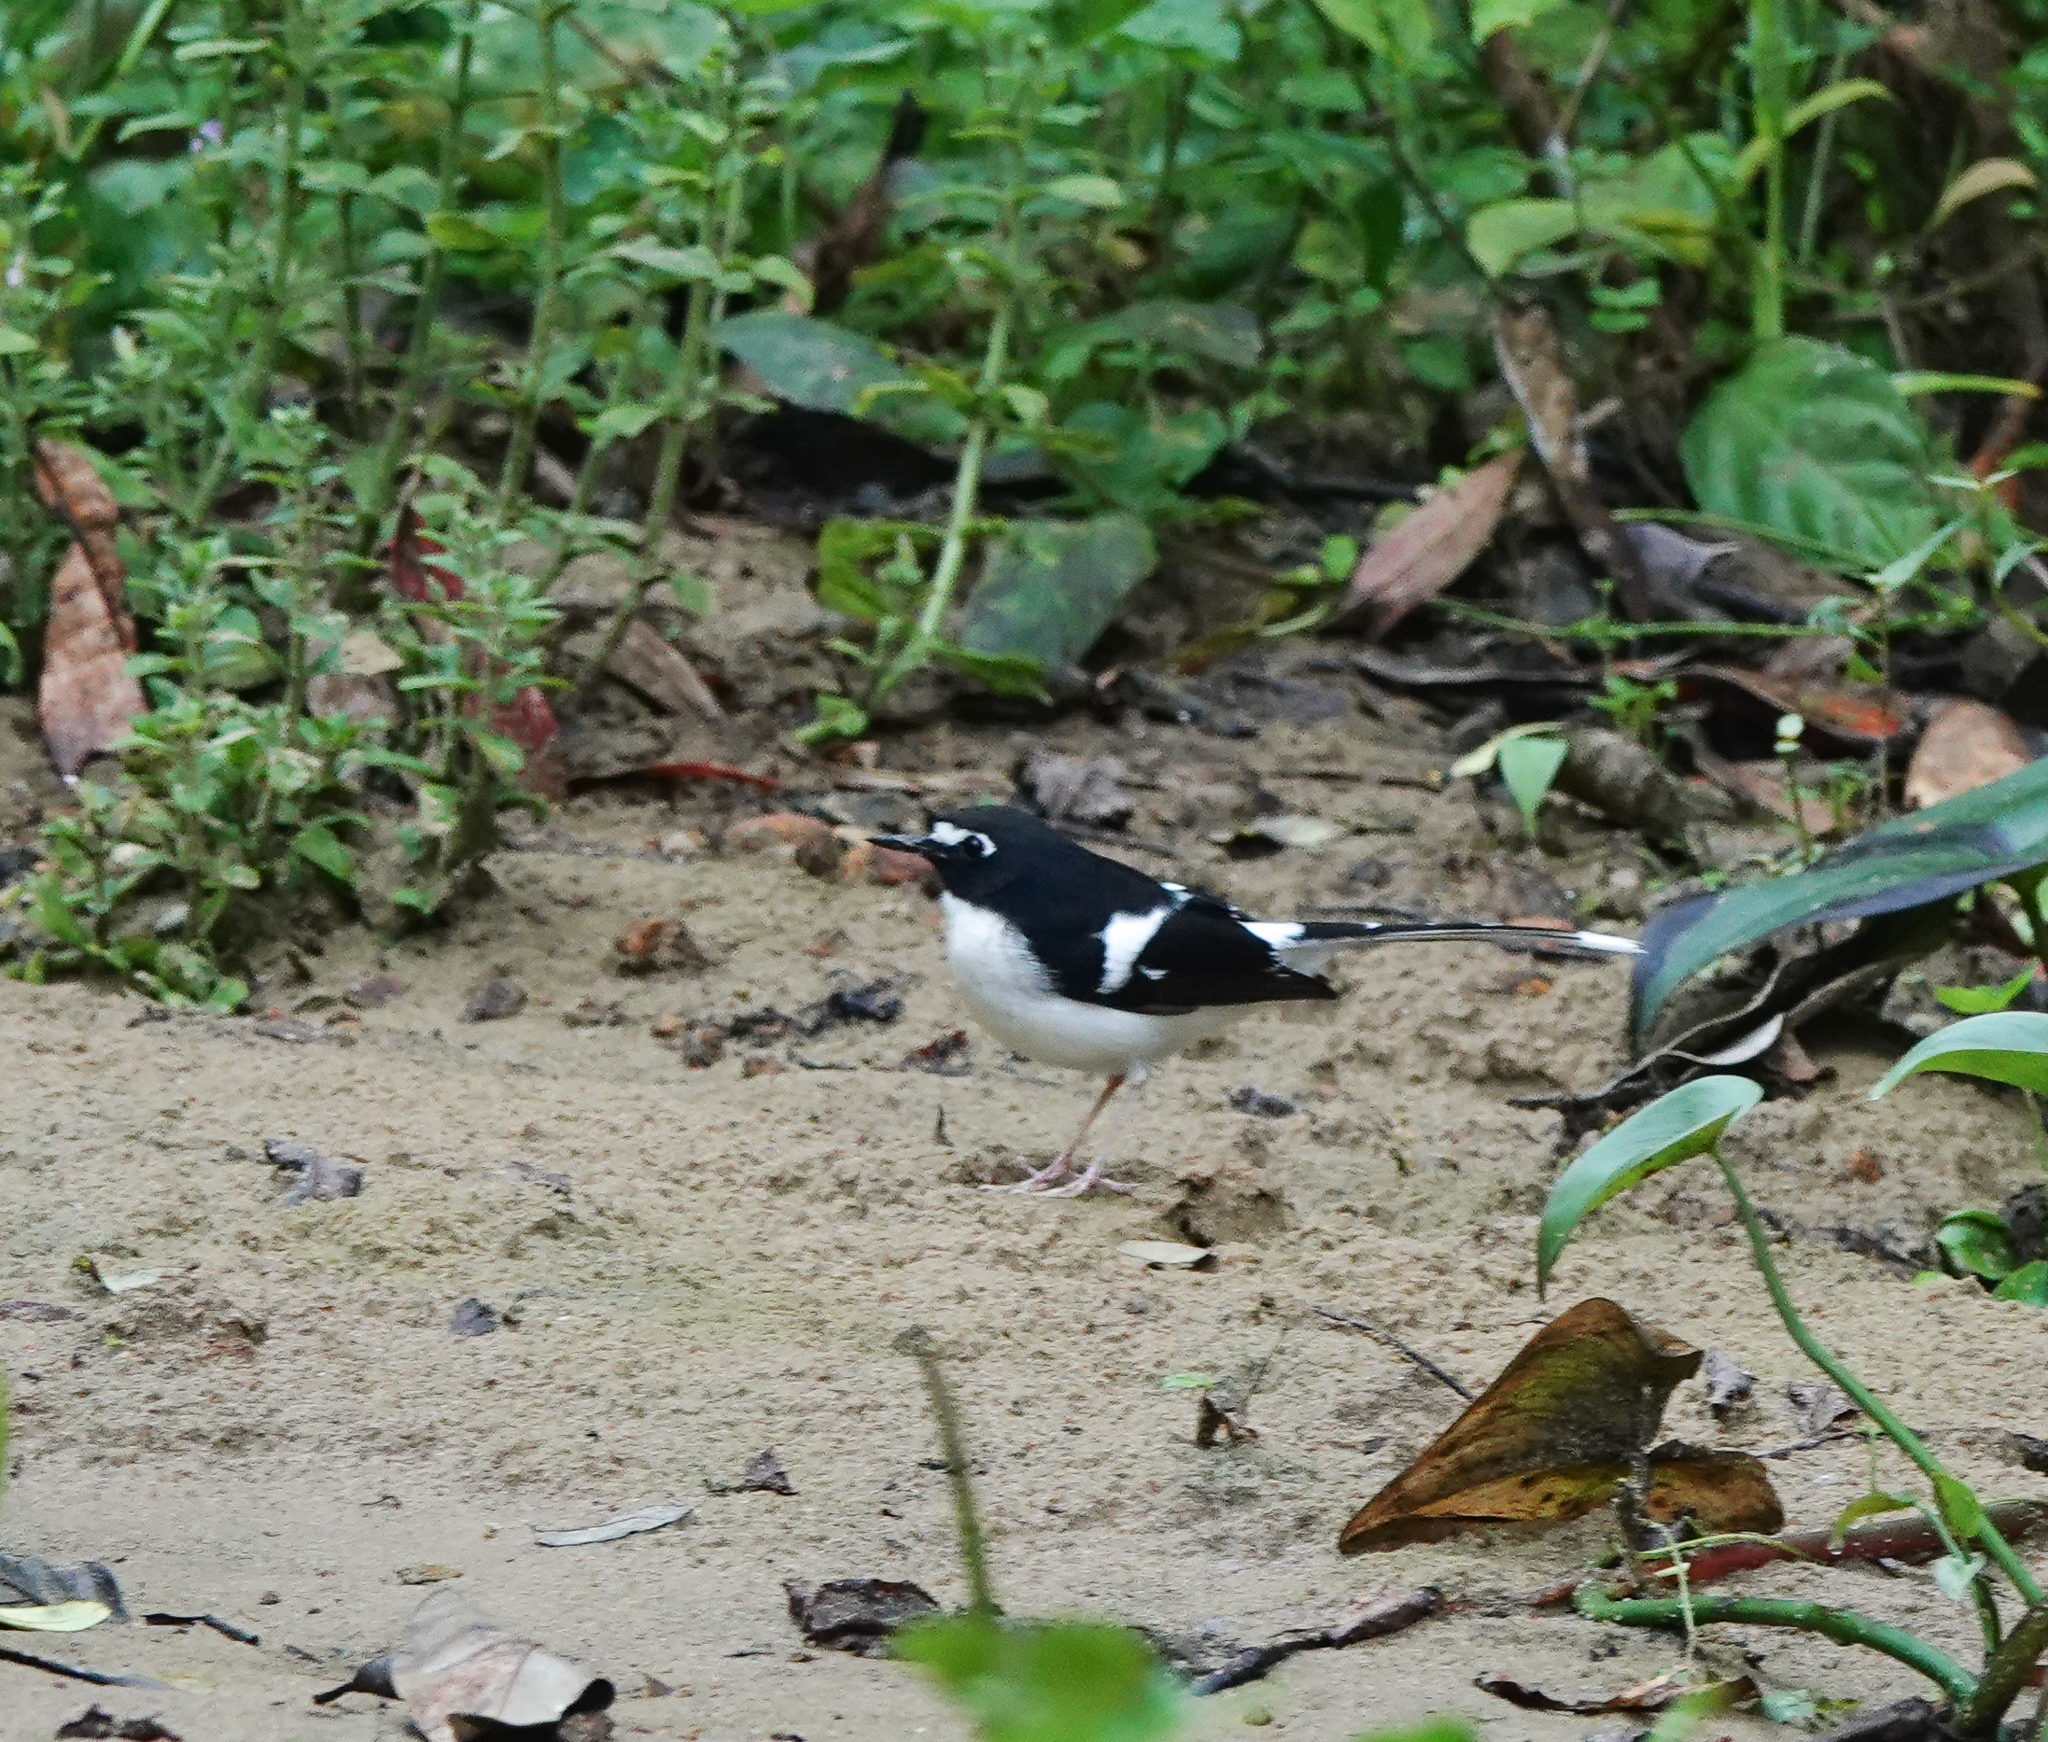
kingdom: Animalia
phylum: Chordata
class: Aves
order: Passeriformes
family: Muscicapidae
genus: Enicurus
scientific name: Enicurus immaculatus
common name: Black-backed forktail
